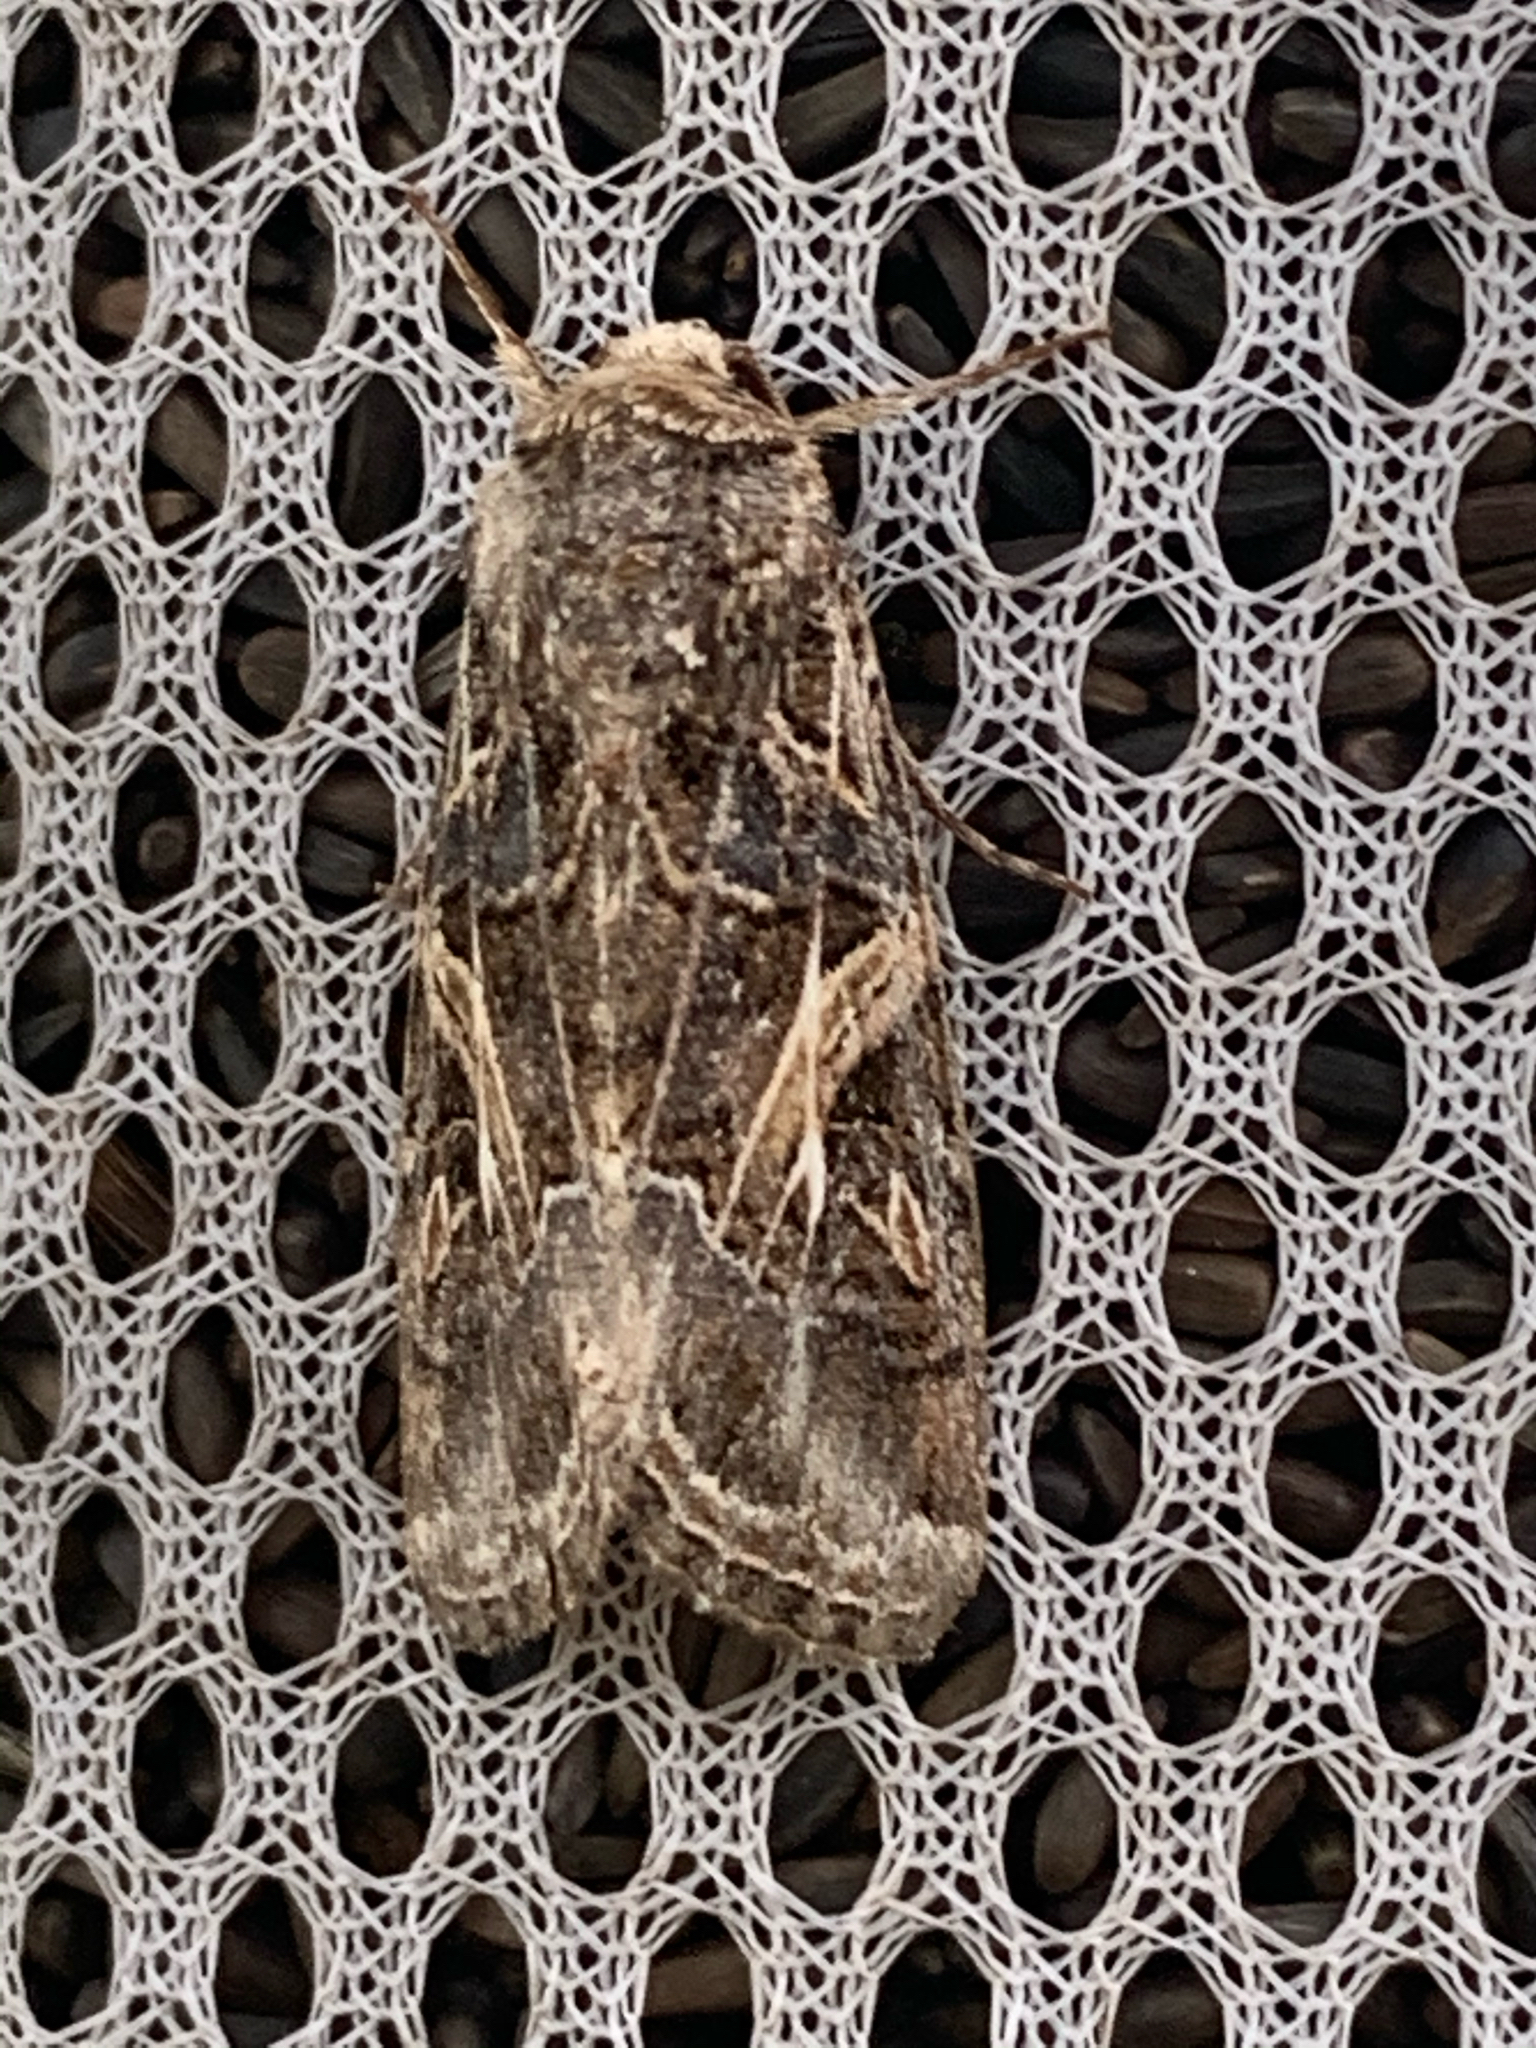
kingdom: Animalia
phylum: Arthropoda
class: Insecta
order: Lepidoptera
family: Noctuidae
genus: Spodoptera
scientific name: Spodoptera ornithogalli
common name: Yellow-striped armyworm
